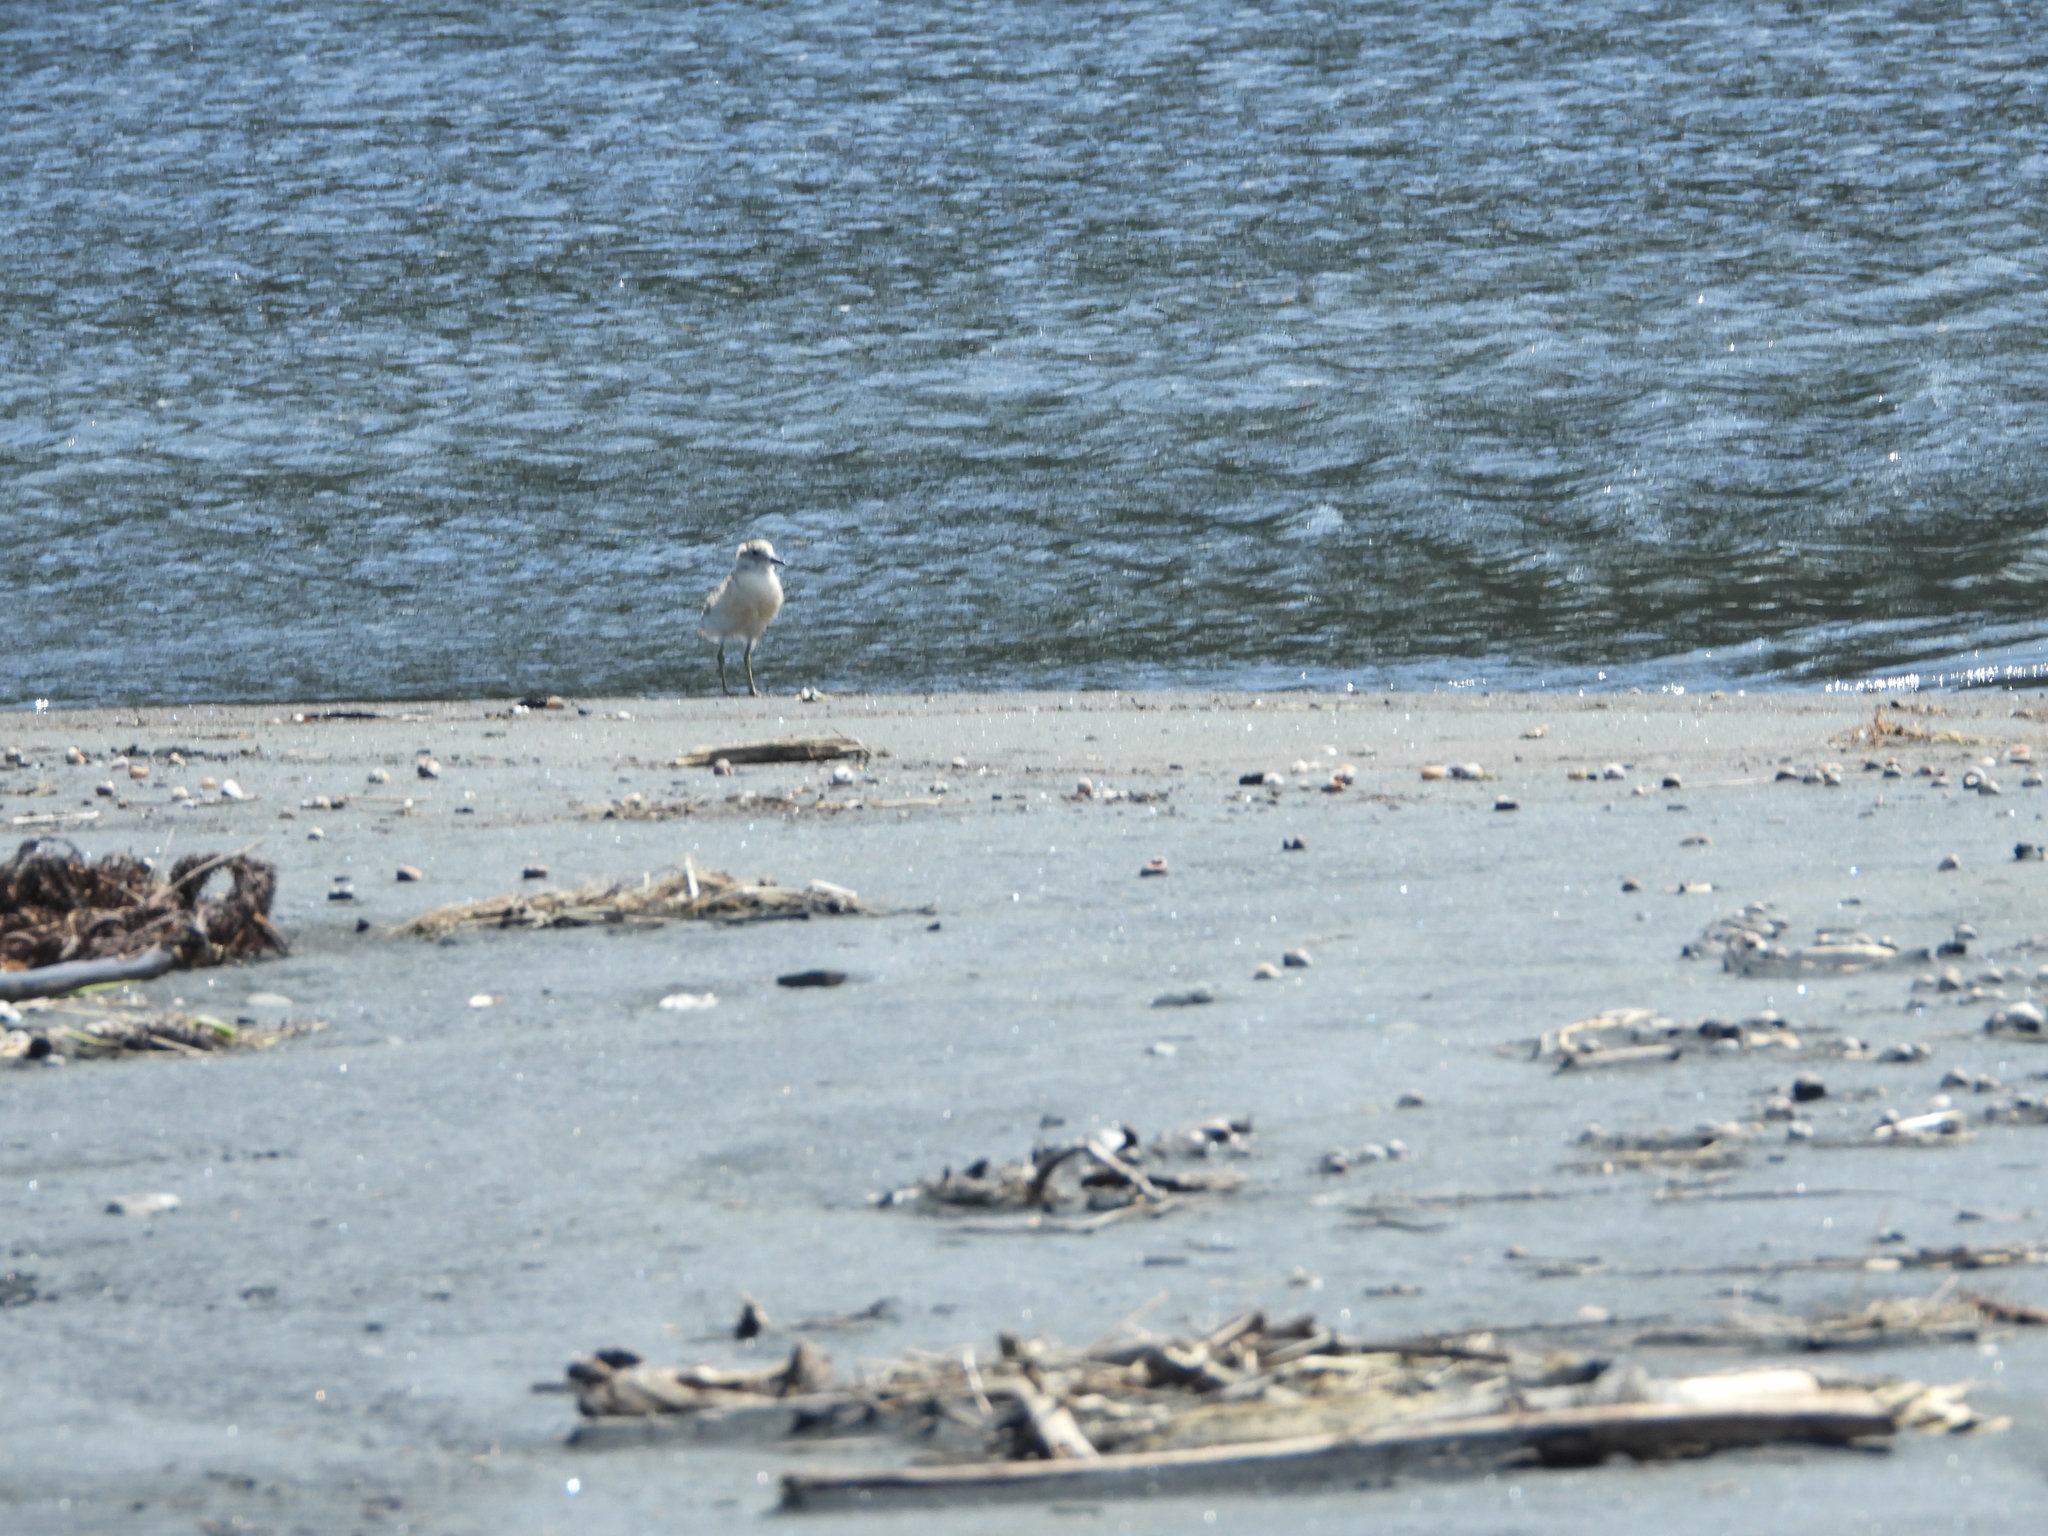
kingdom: Animalia
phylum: Chordata
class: Aves
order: Charadriiformes
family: Charadriidae
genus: Anarhynchus
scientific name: Anarhynchus
